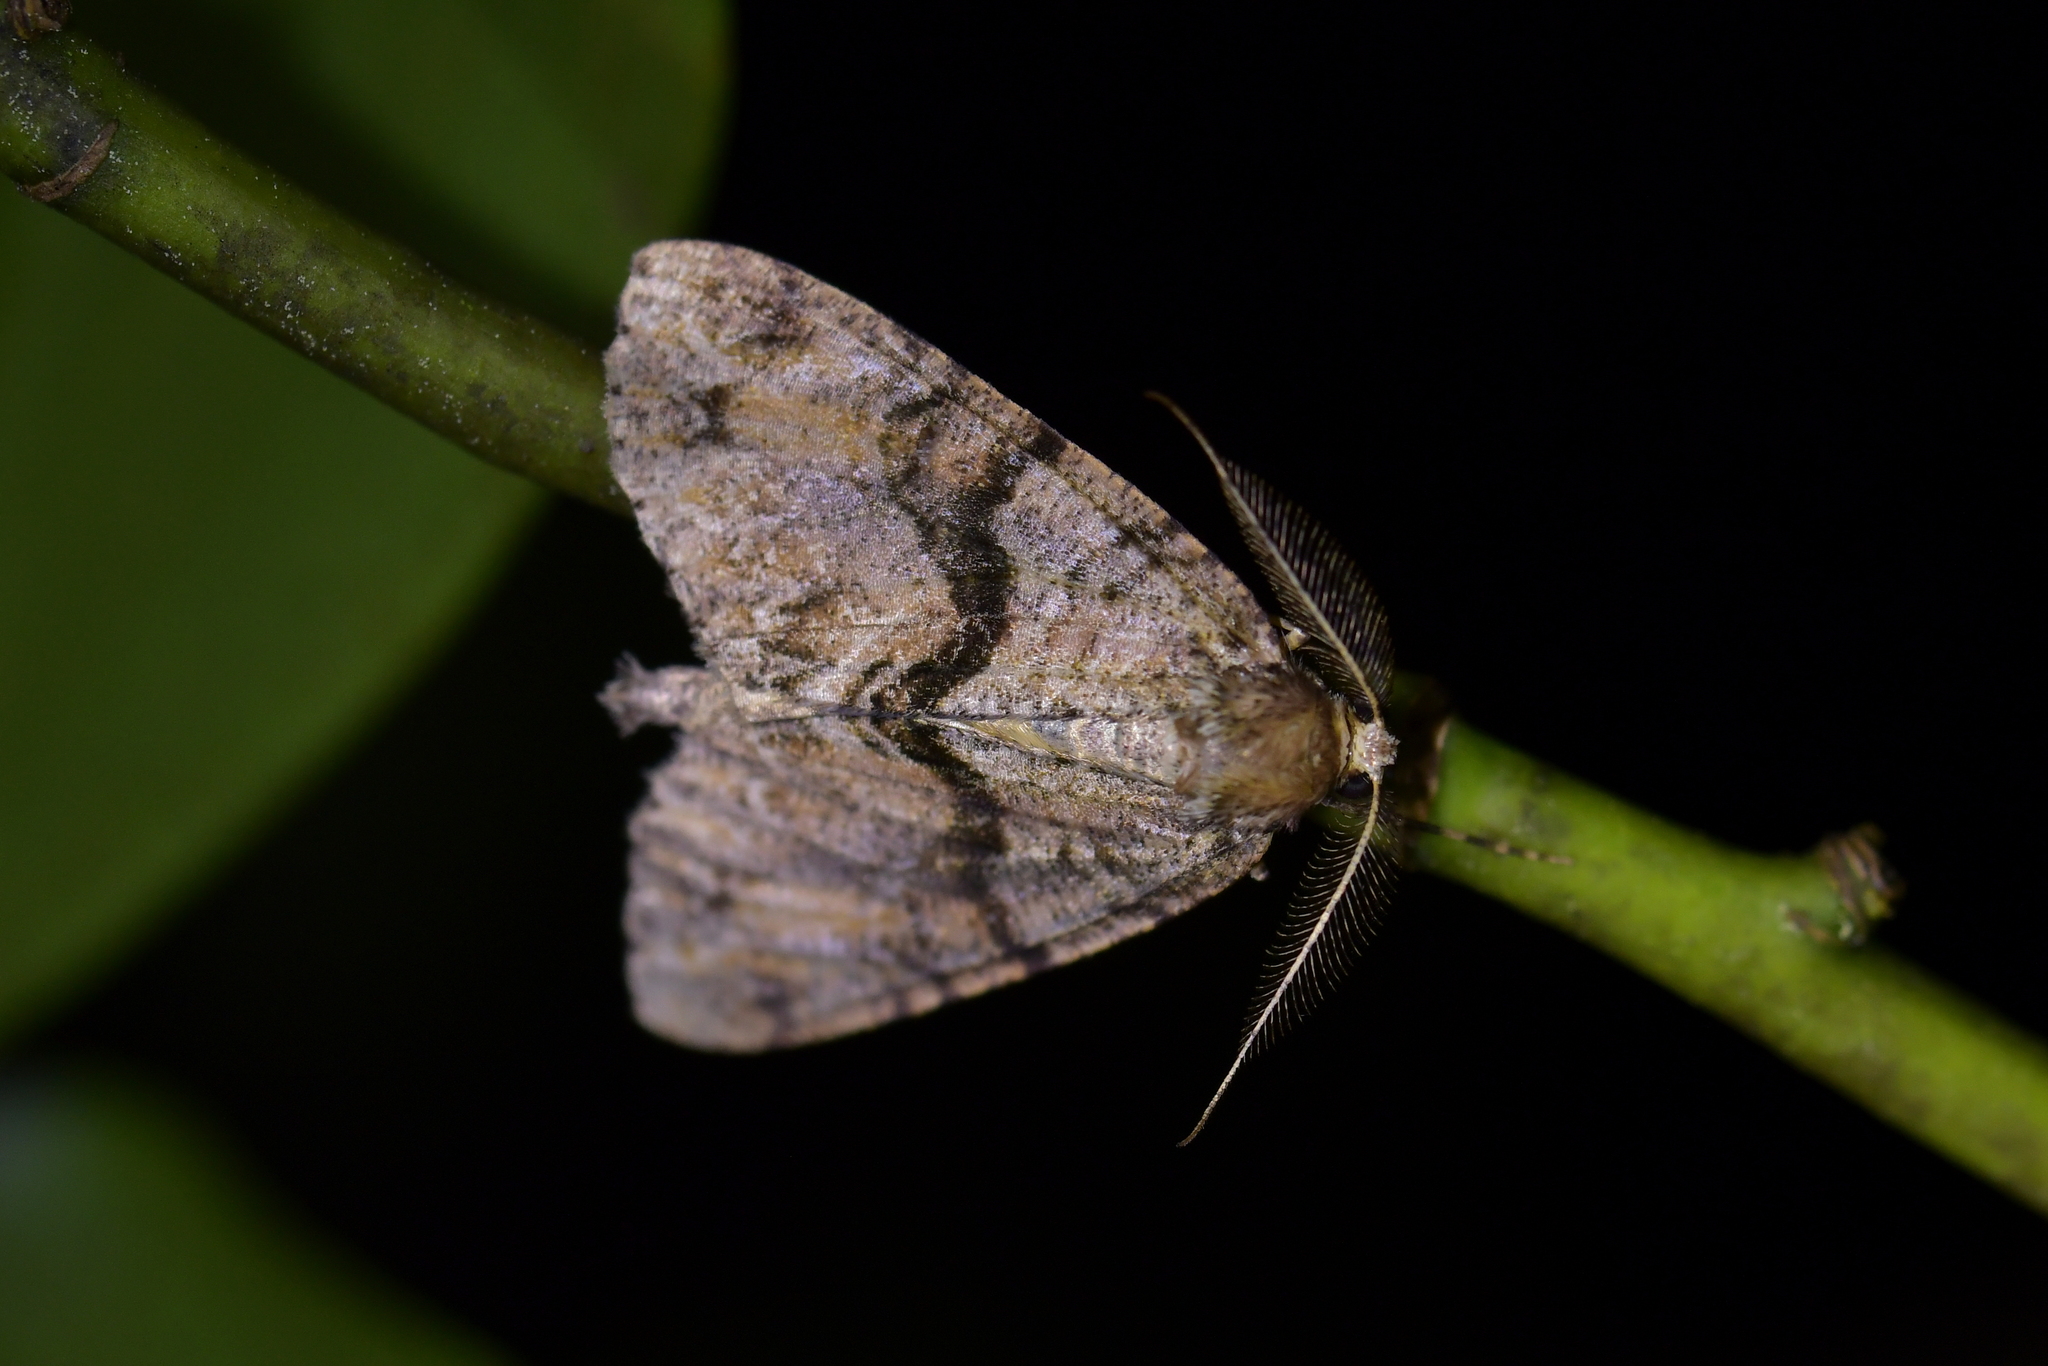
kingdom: Animalia
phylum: Arthropoda
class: Insecta
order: Lepidoptera
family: Geometridae
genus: Pseudocoremia
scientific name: Pseudocoremia suavis
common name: Common forest looper
